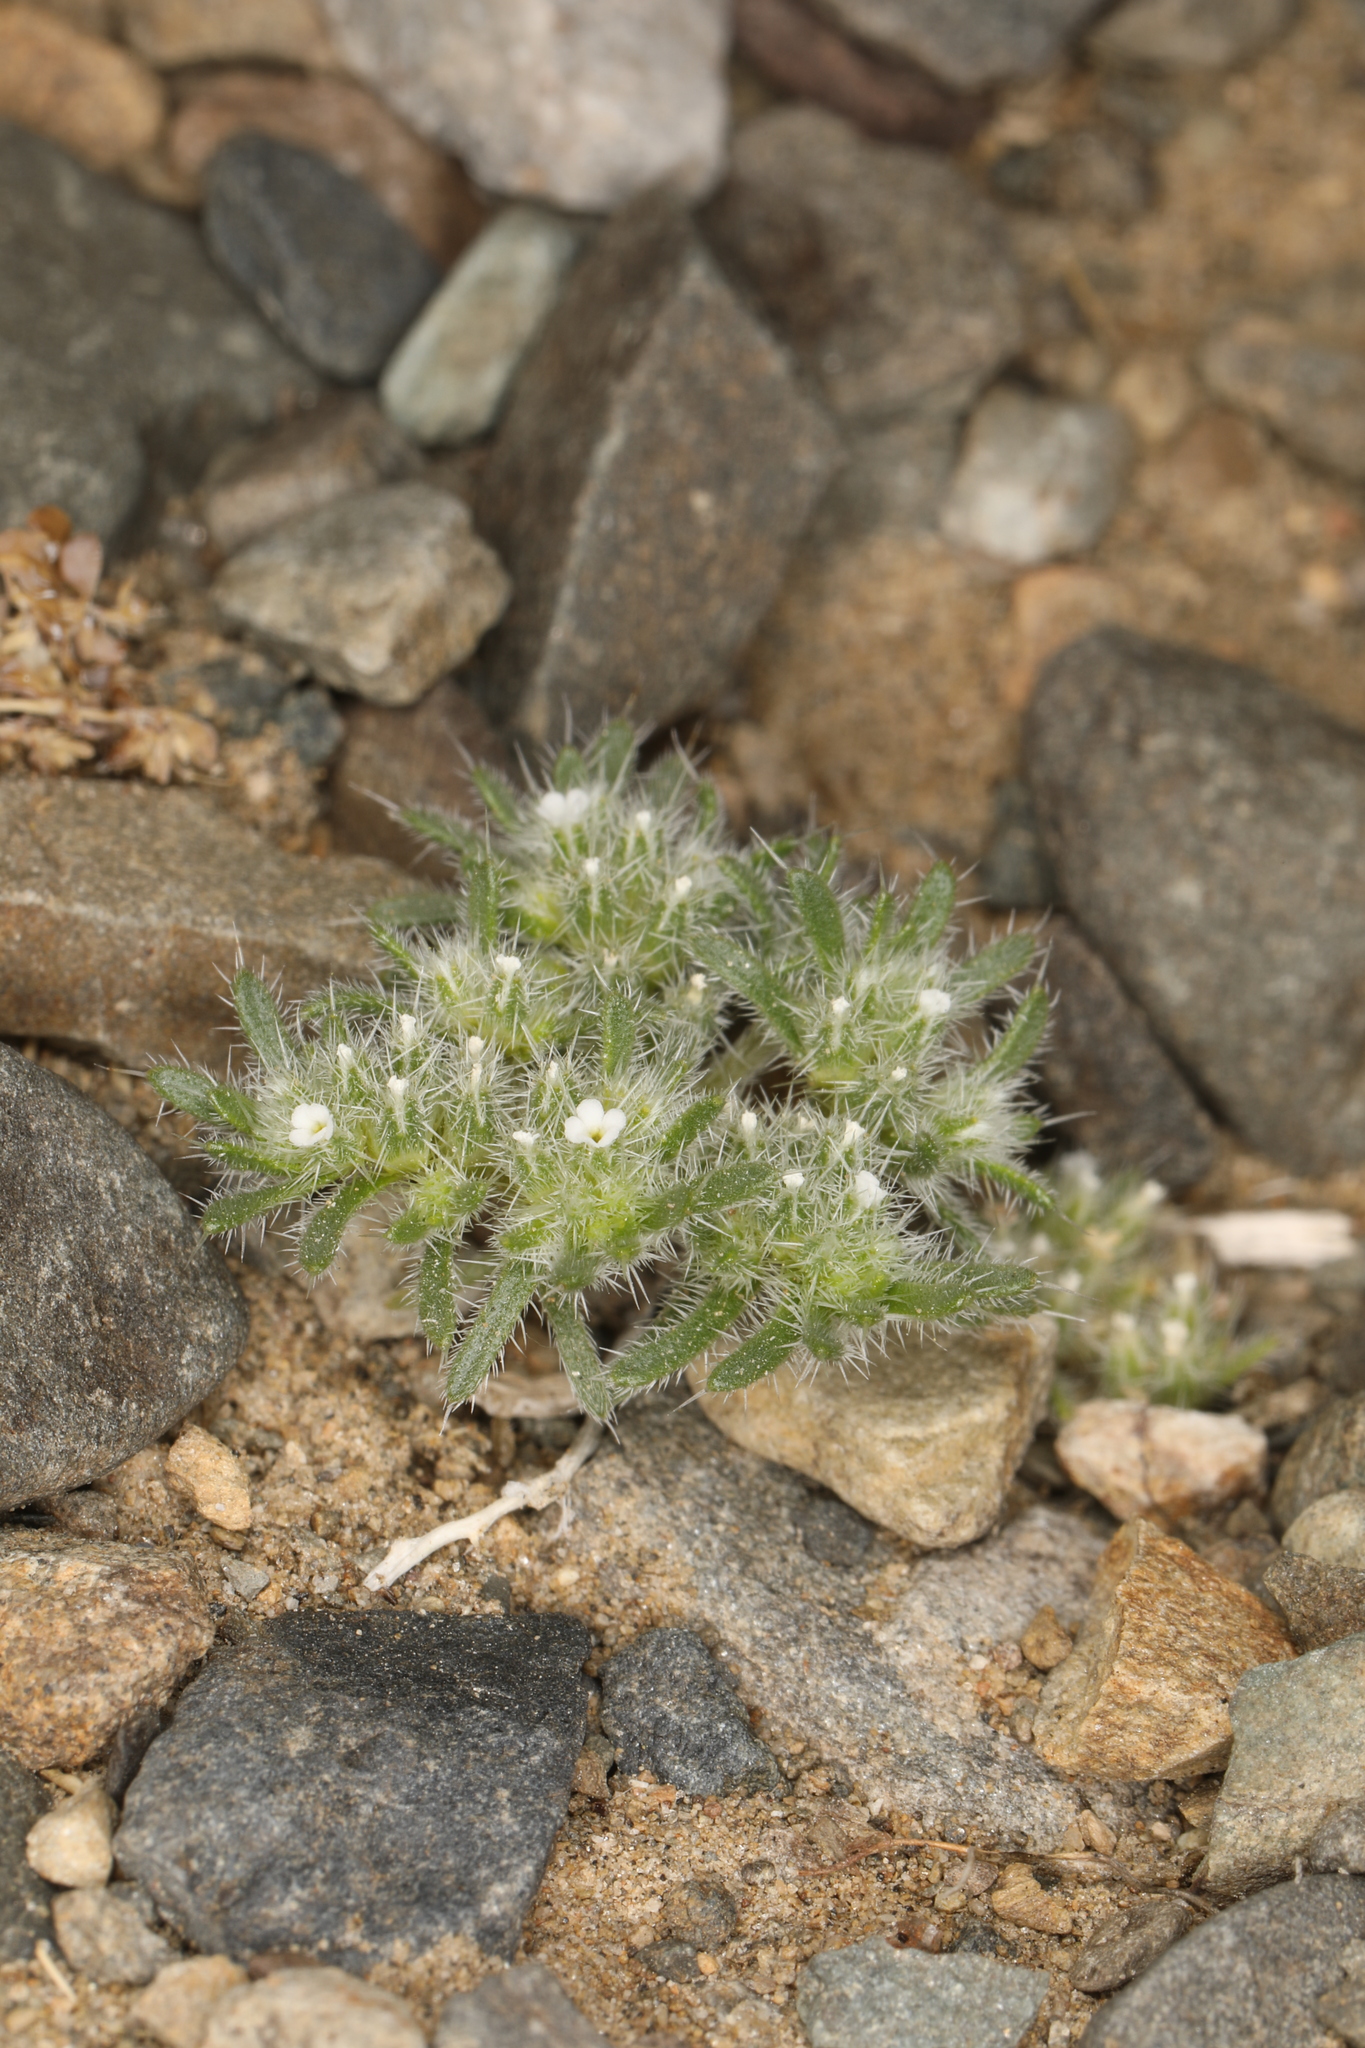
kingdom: Plantae
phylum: Tracheophyta
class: Magnoliopsida
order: Boraginales
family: Boraginaceae
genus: Greeneocharis
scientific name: Greeneocharis circumscissa
